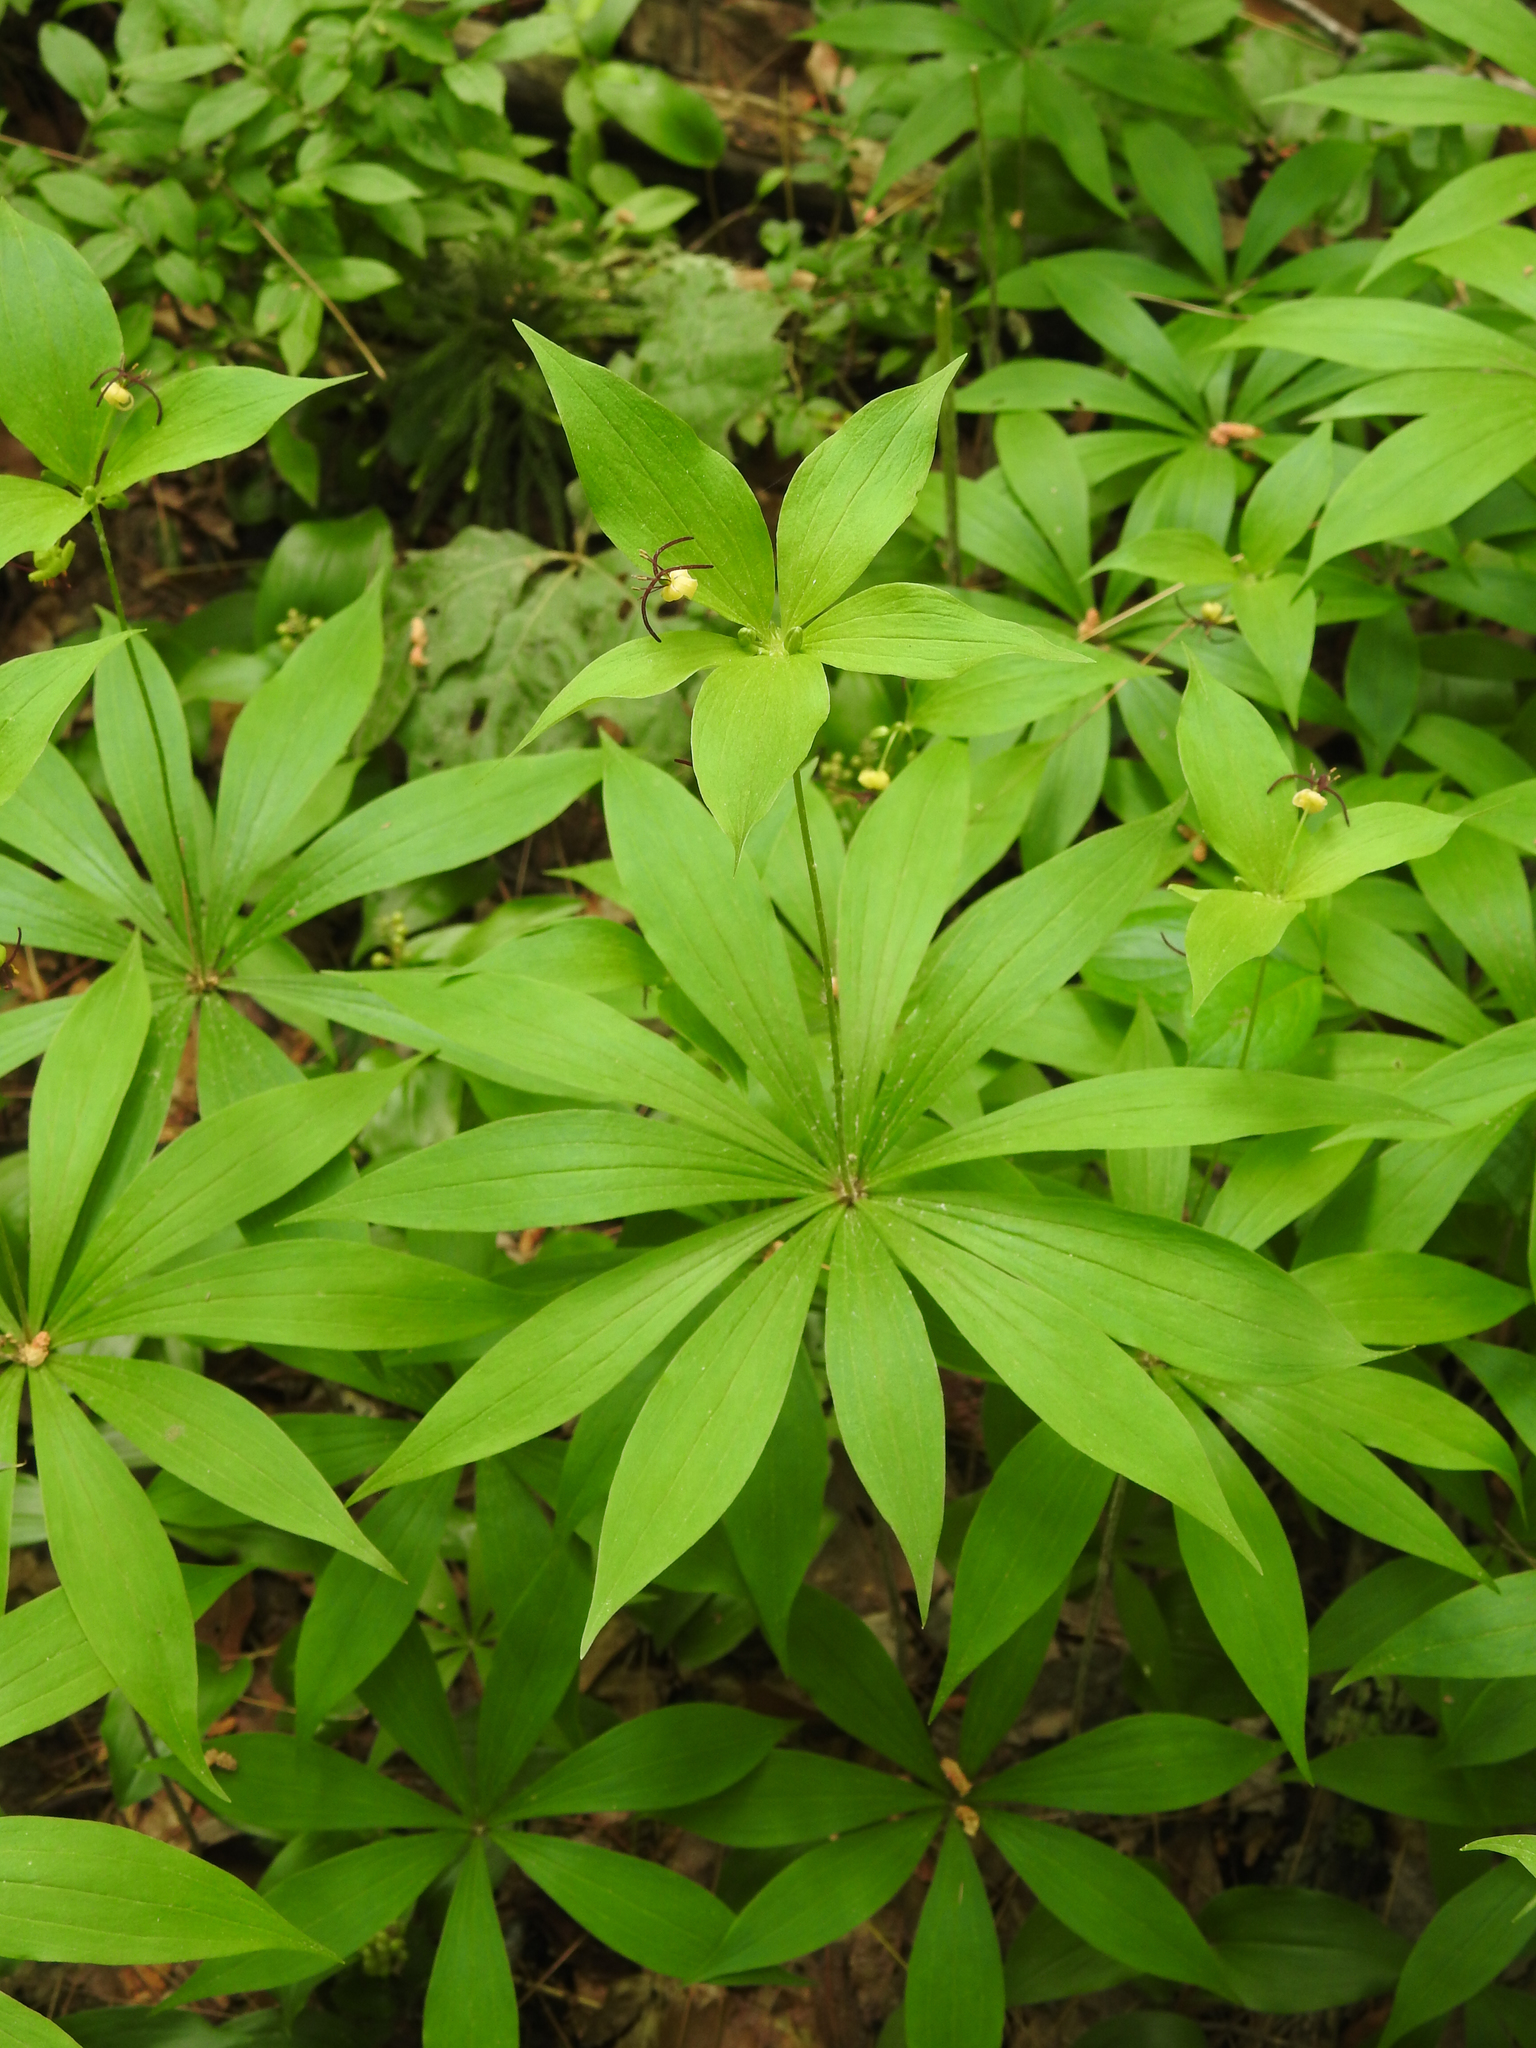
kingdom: Plantae
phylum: Tracheophyta
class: Liliopsida
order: Liliales
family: Liliaceae
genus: Medeola
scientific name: Medeola virginiana
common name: Indian cucumber-root
